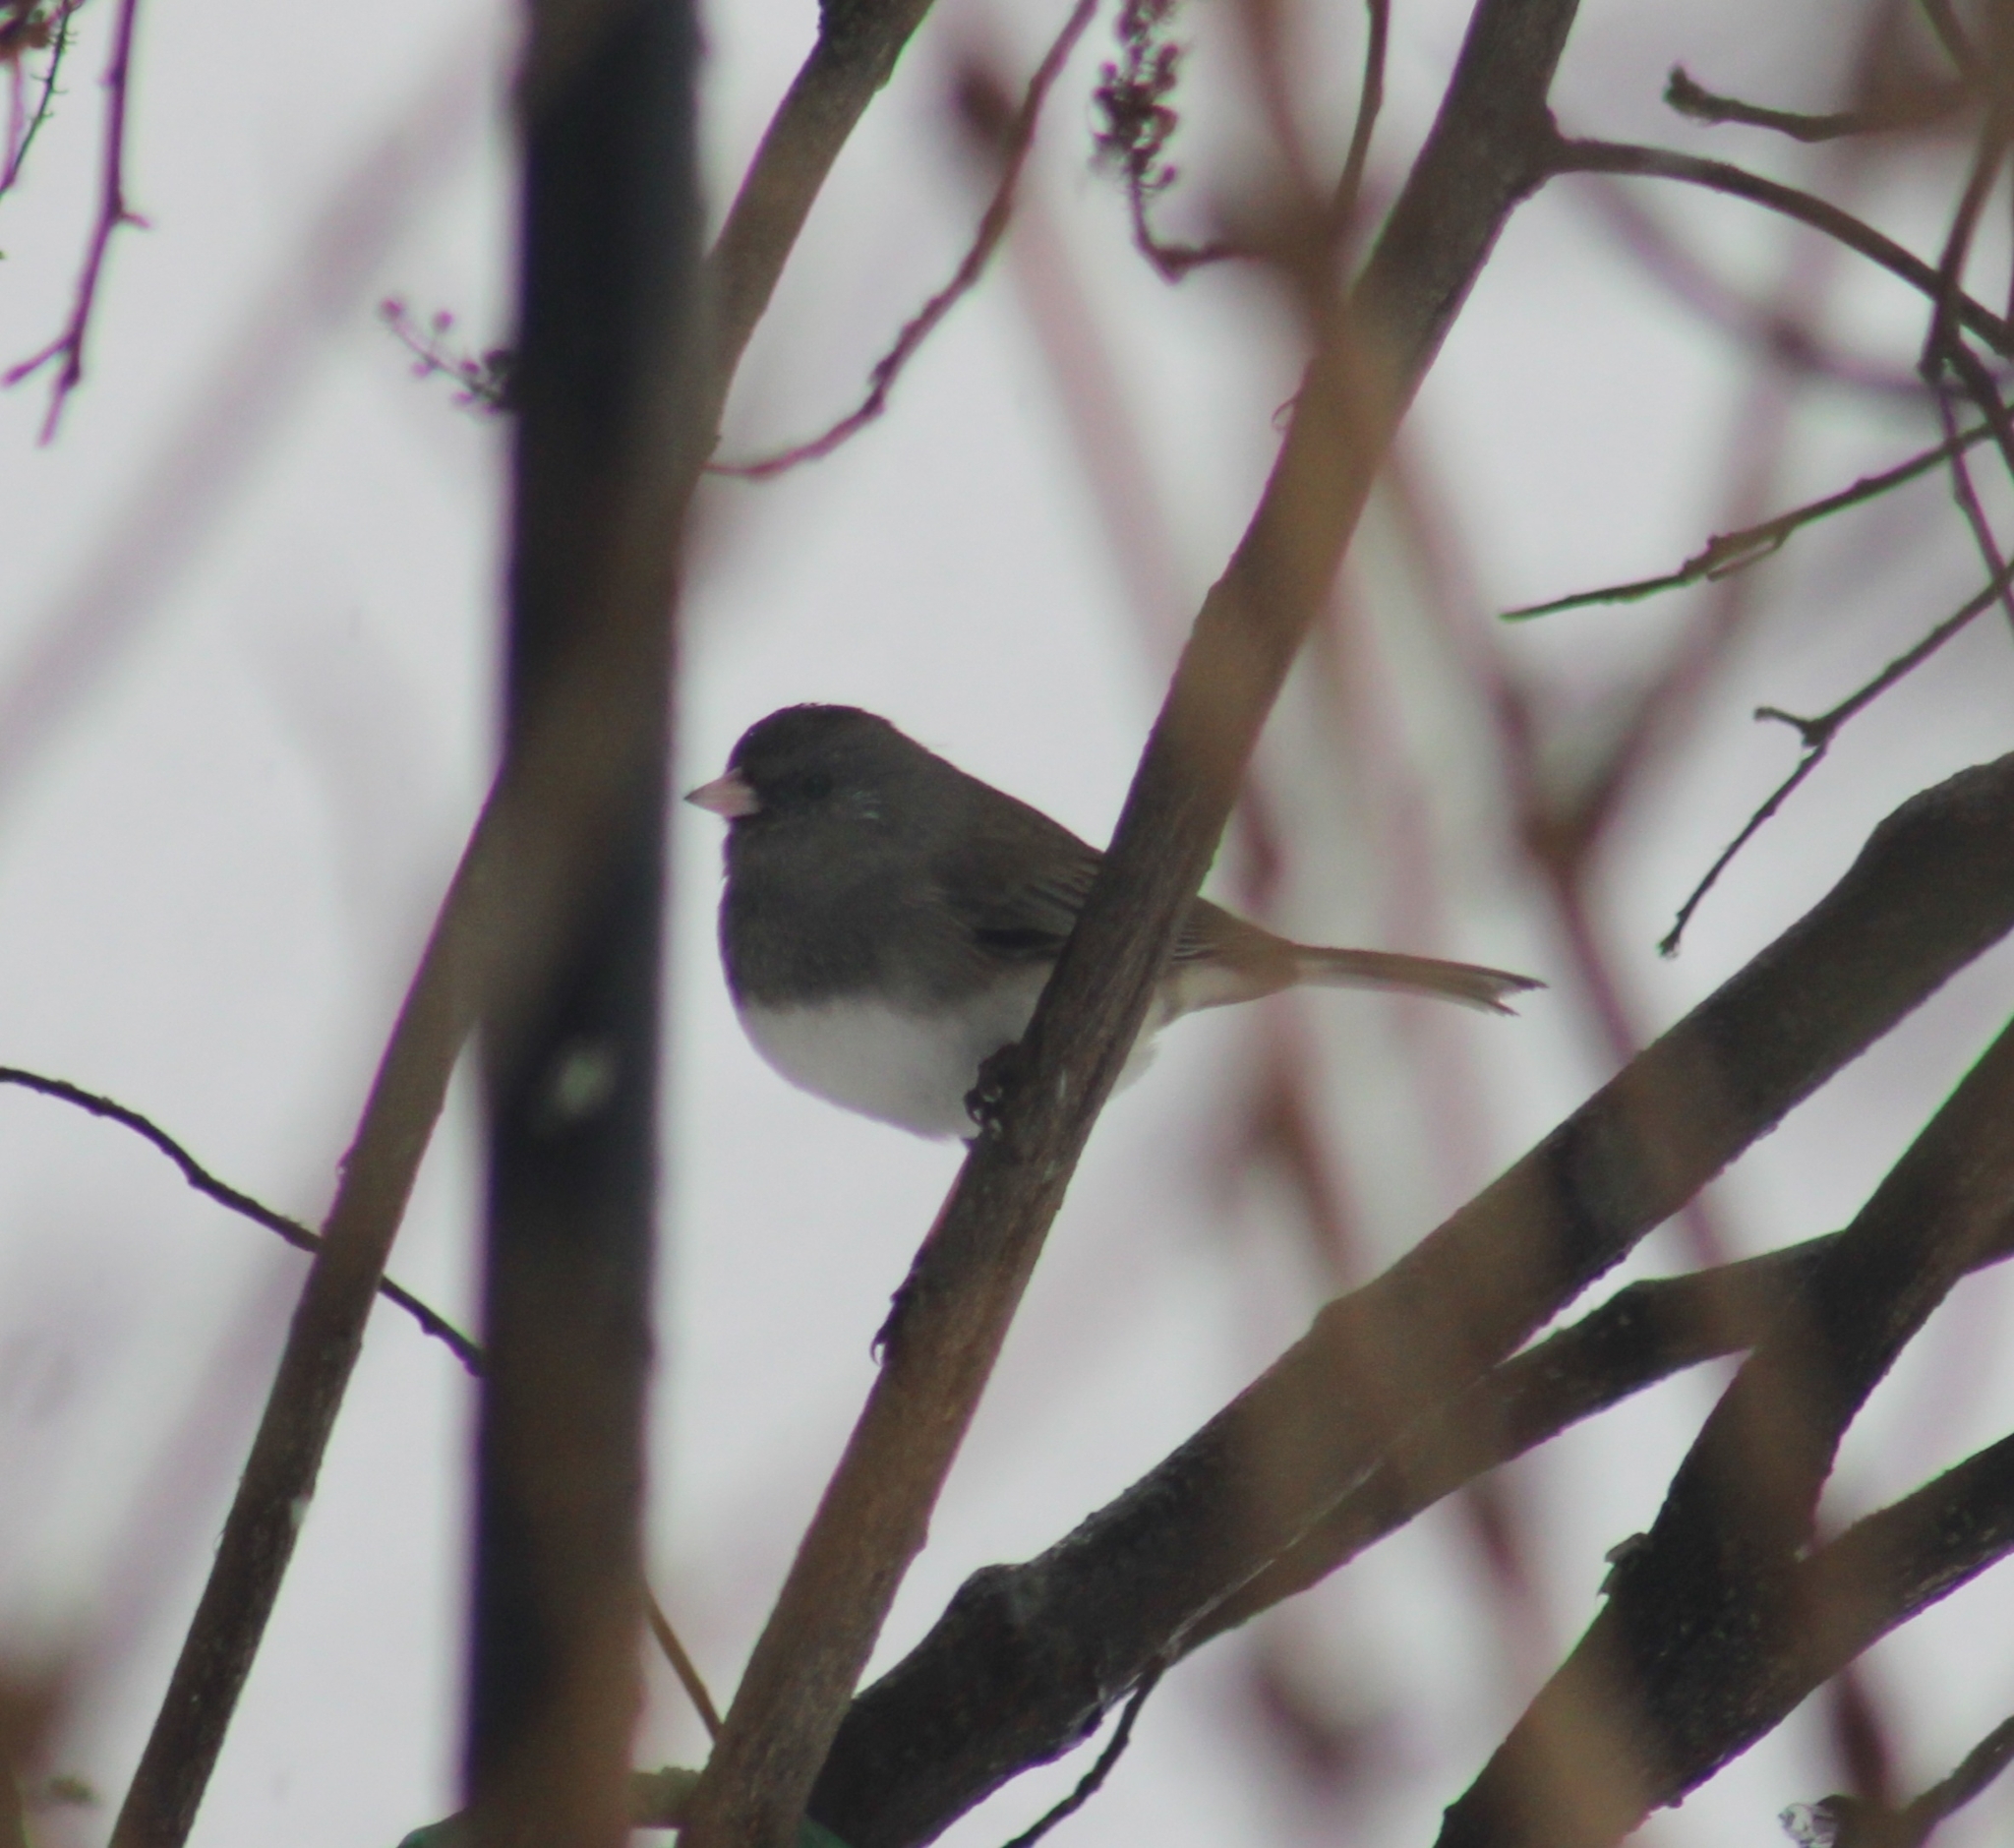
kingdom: Animalia
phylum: Chordata
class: Aves
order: Passeriformes
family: Passerellidae
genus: Junco
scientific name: Junco hyemalis
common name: Dark-eyed junco
